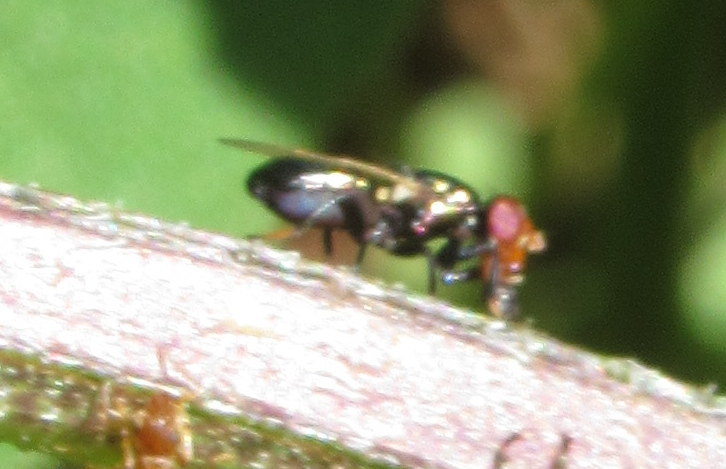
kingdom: Animalia
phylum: Arthropoda
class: Insecta
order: Diptera
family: Ulidiidae
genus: Physiphora
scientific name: Physiphora alceae
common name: Picture-winged fly
